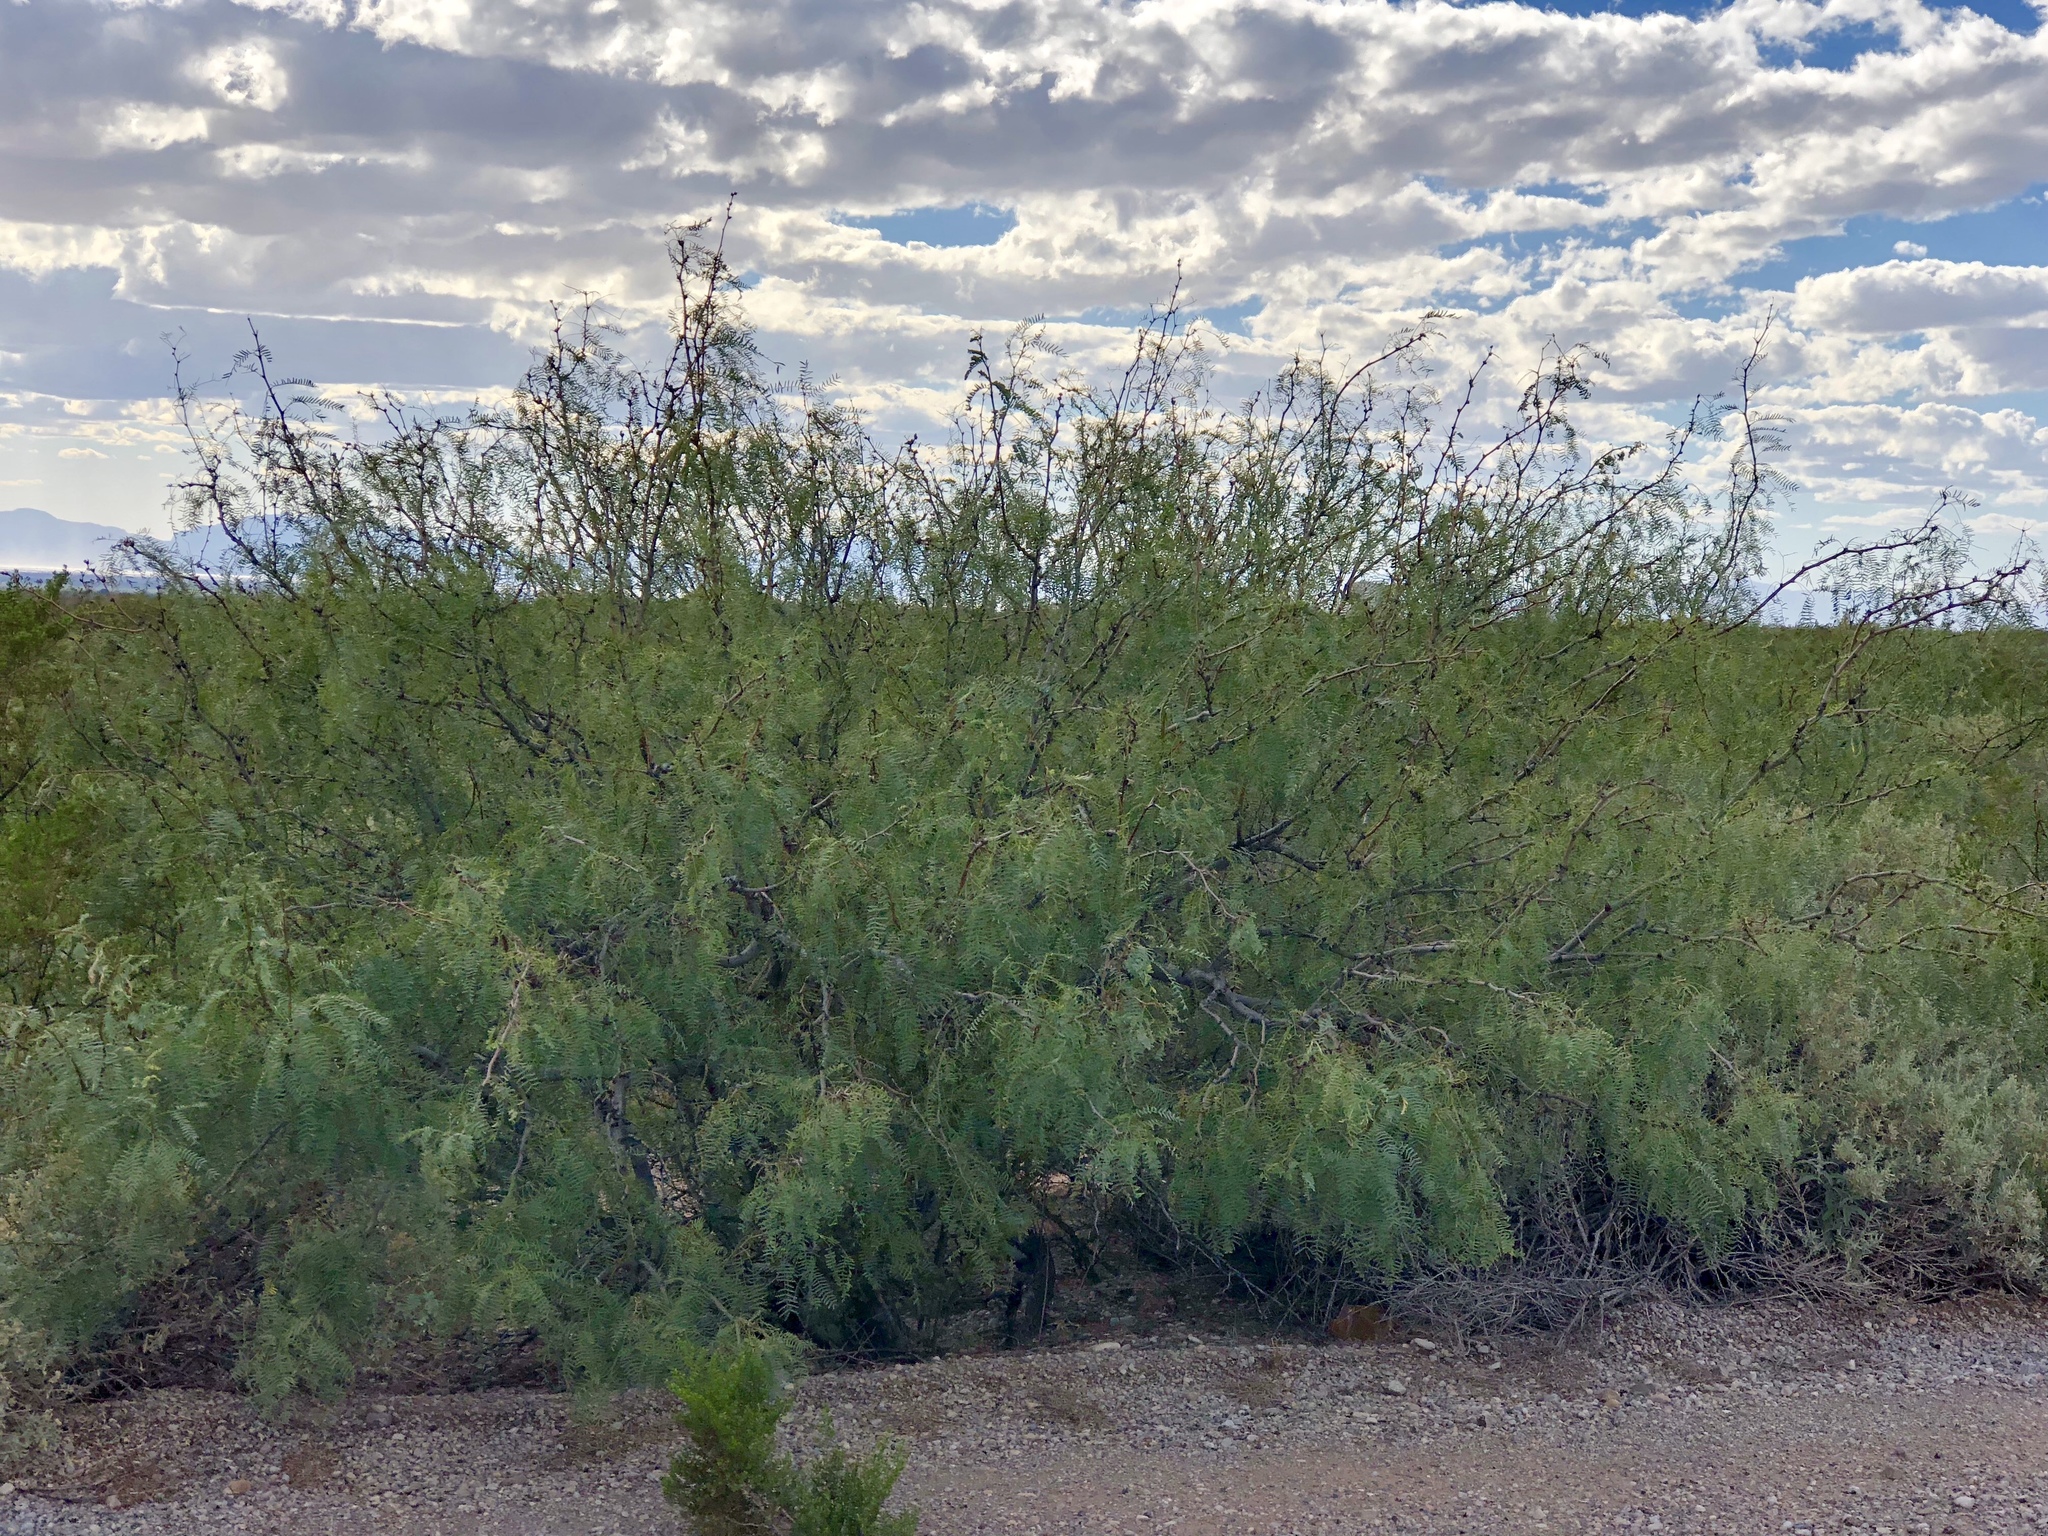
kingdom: Plantae
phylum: Tracheophyta
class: Magnoliopsida
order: Fabales
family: Fabaceae
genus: Prosopis
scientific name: Prosopis glandulosa
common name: Honey mesquite
